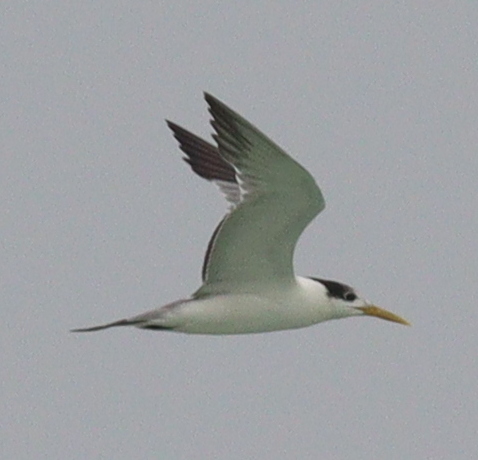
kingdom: Animalia
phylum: Chordata
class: Aves
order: Charadriiformes
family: Laridae
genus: Thalasseus
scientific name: Thalasseus bergii
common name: Greater crested tern
